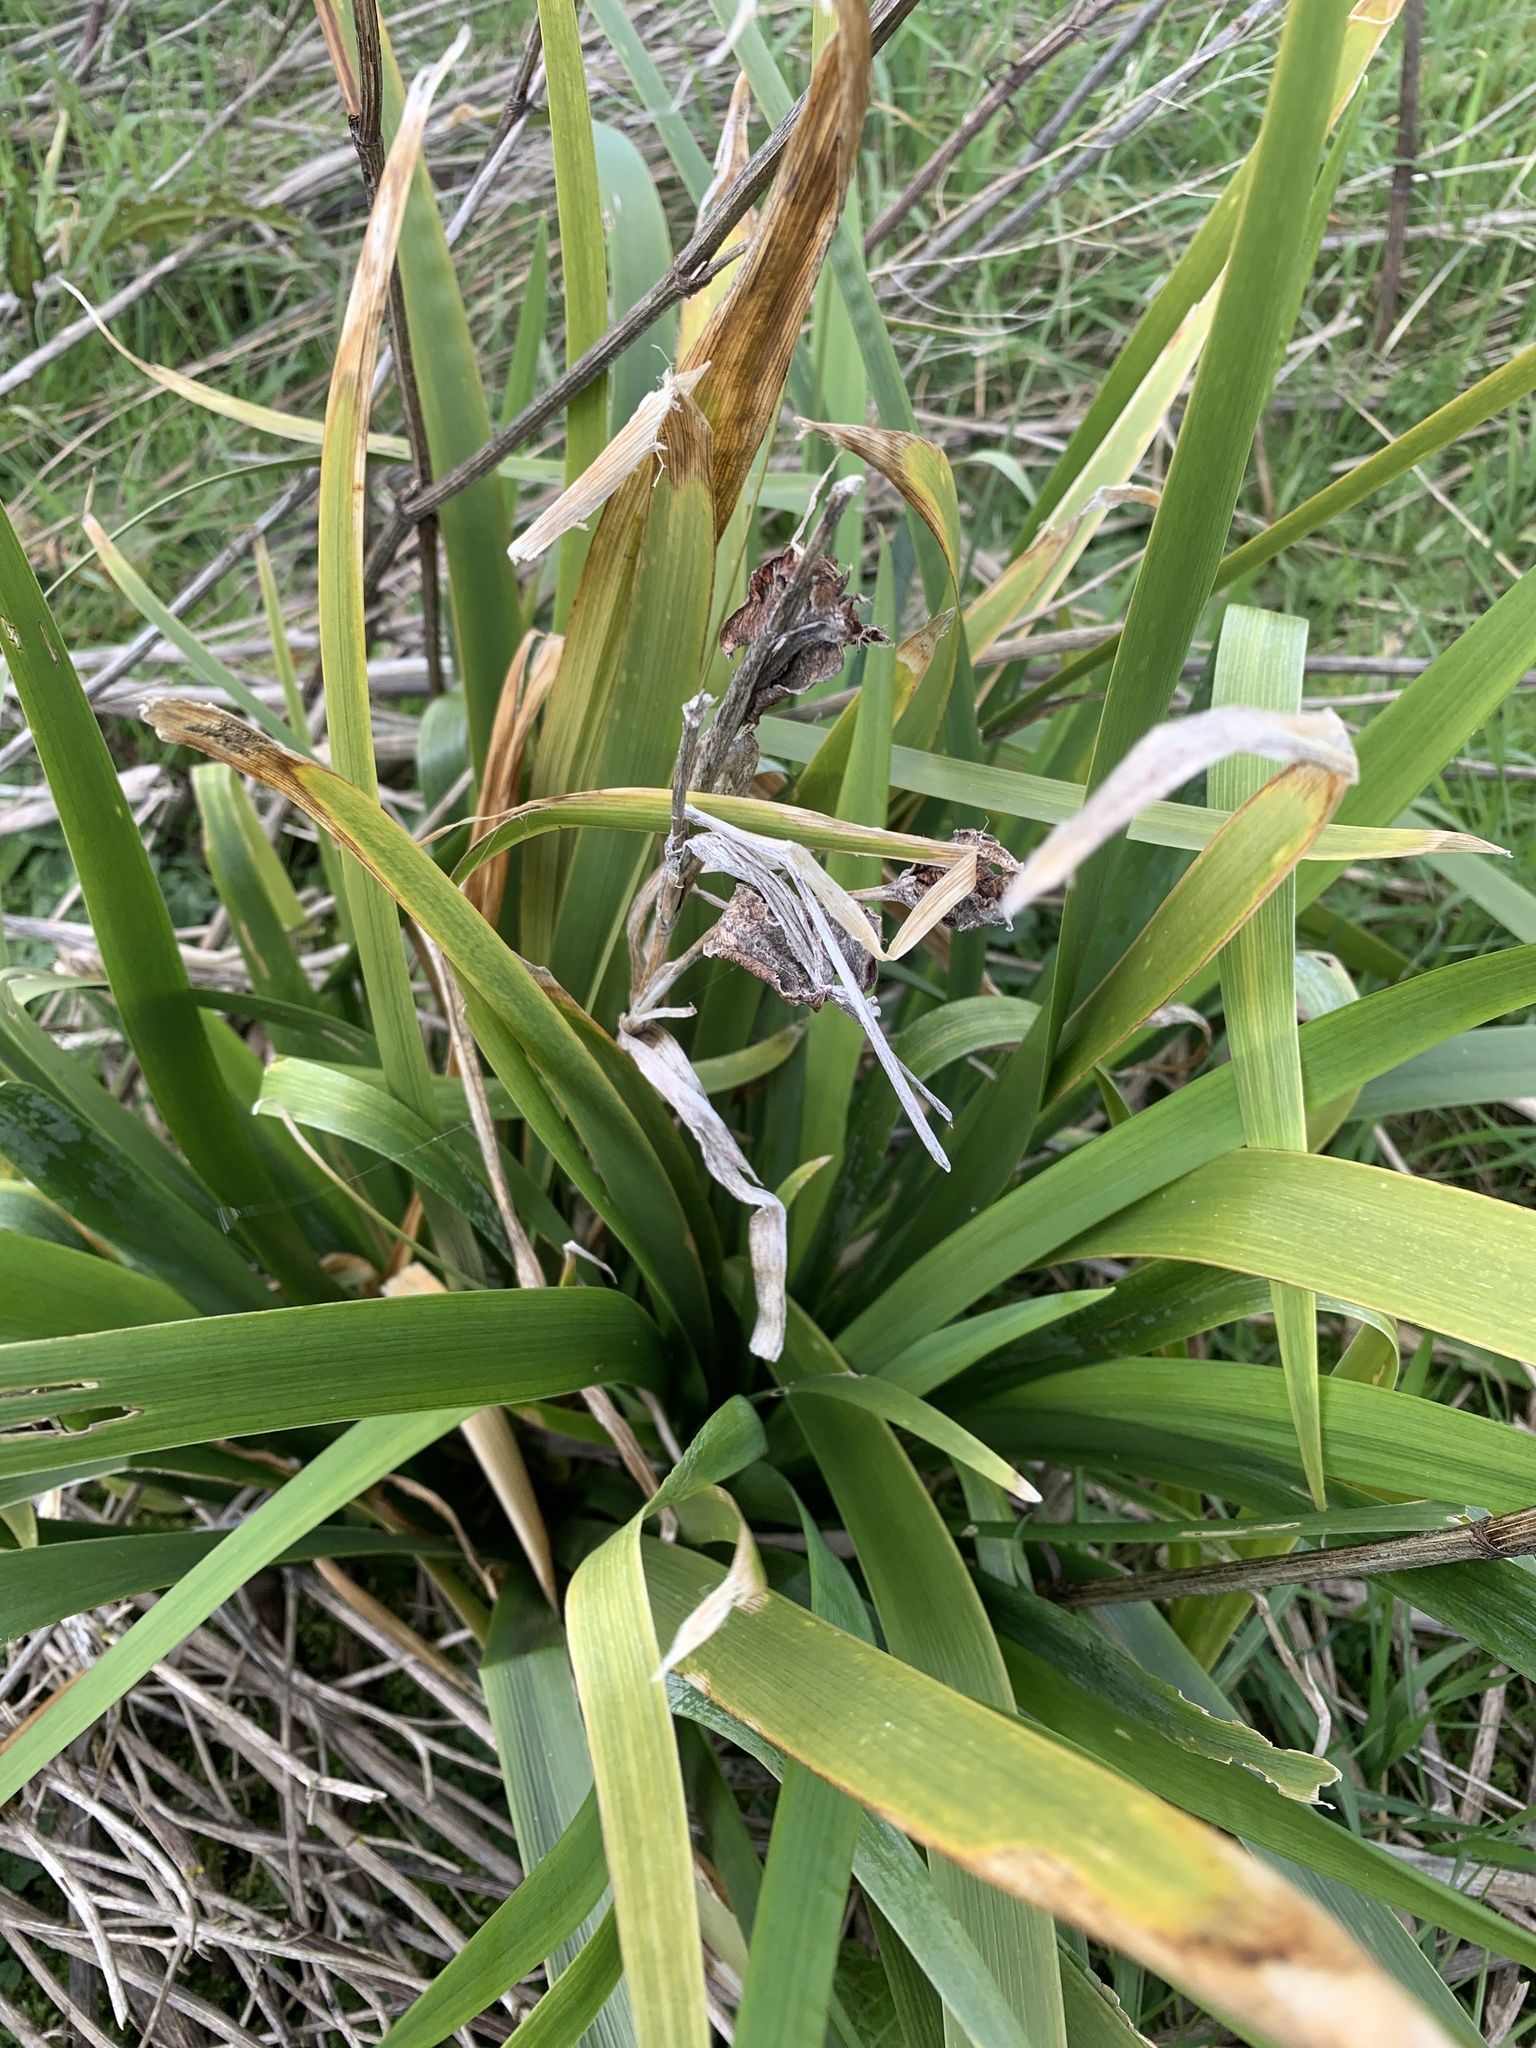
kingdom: Plantae
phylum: Tracheophyta
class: Liliopsida
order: Asparagales
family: Iridaceae
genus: Iris
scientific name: Iris foetidissima
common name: Stinking iris
